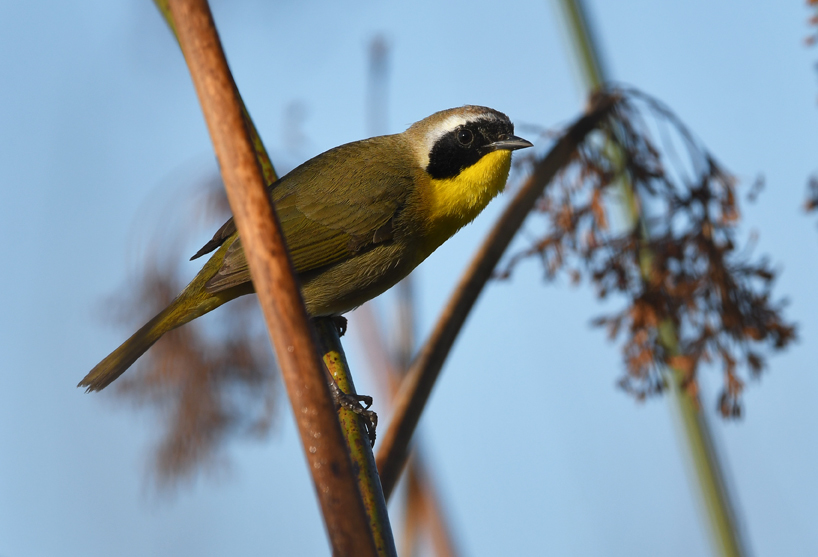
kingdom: Animalia
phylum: Chordata
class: Aves
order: Passeriformes
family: Parulidae
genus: Geothlypis
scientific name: Geothlypis trichas
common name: Common yellowthroat
